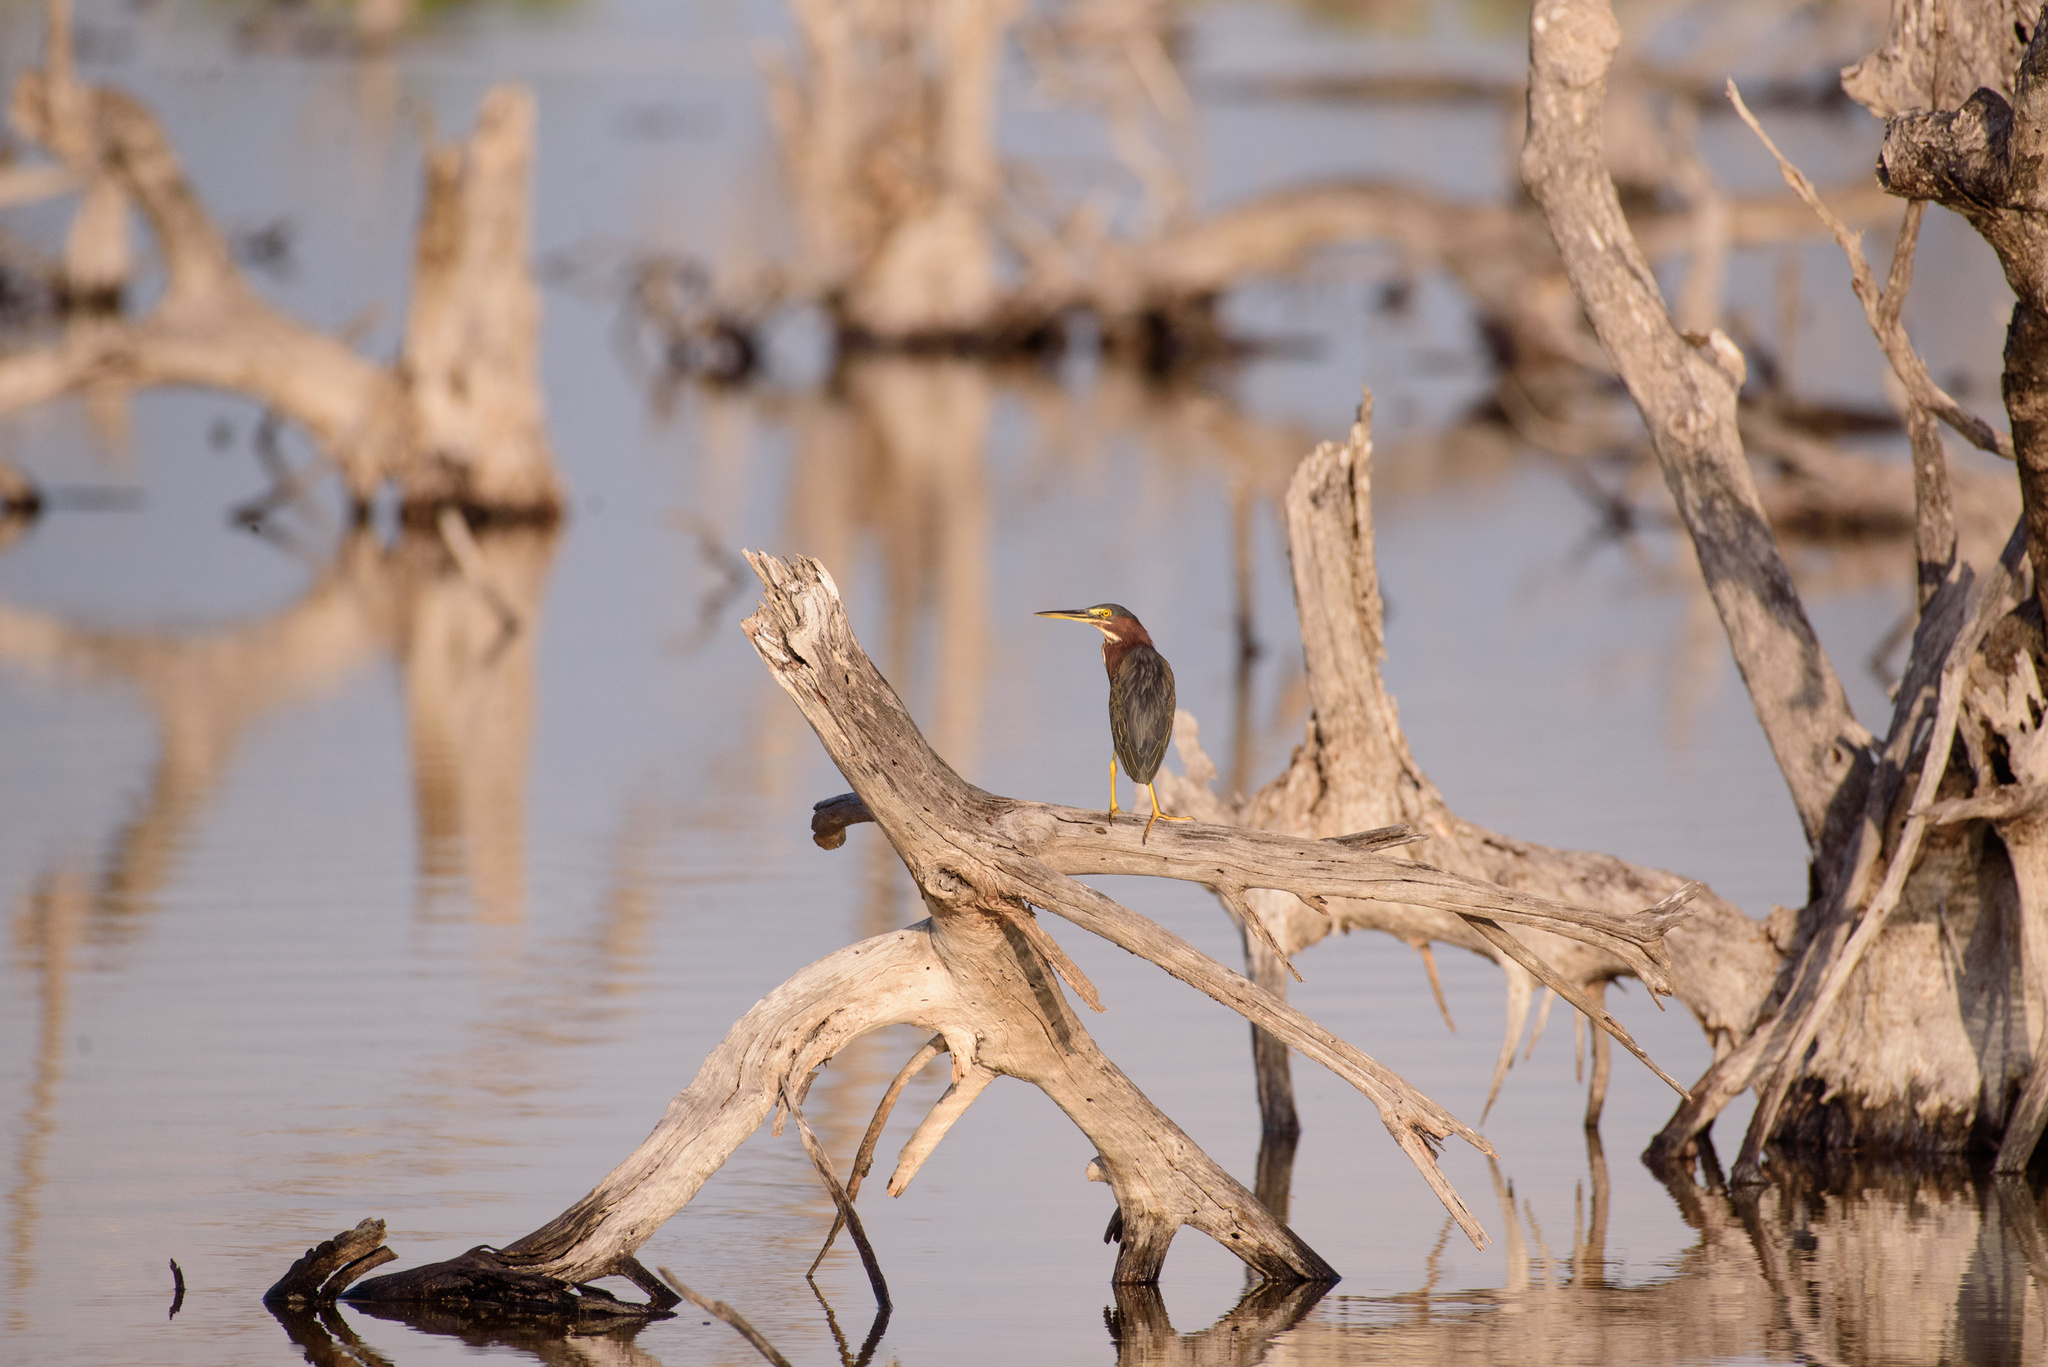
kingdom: Animalia
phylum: Chordata
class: Aves
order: Pelecaniformes
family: Ardeidae
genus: Butorides
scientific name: Butorides virescens
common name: Green heron
